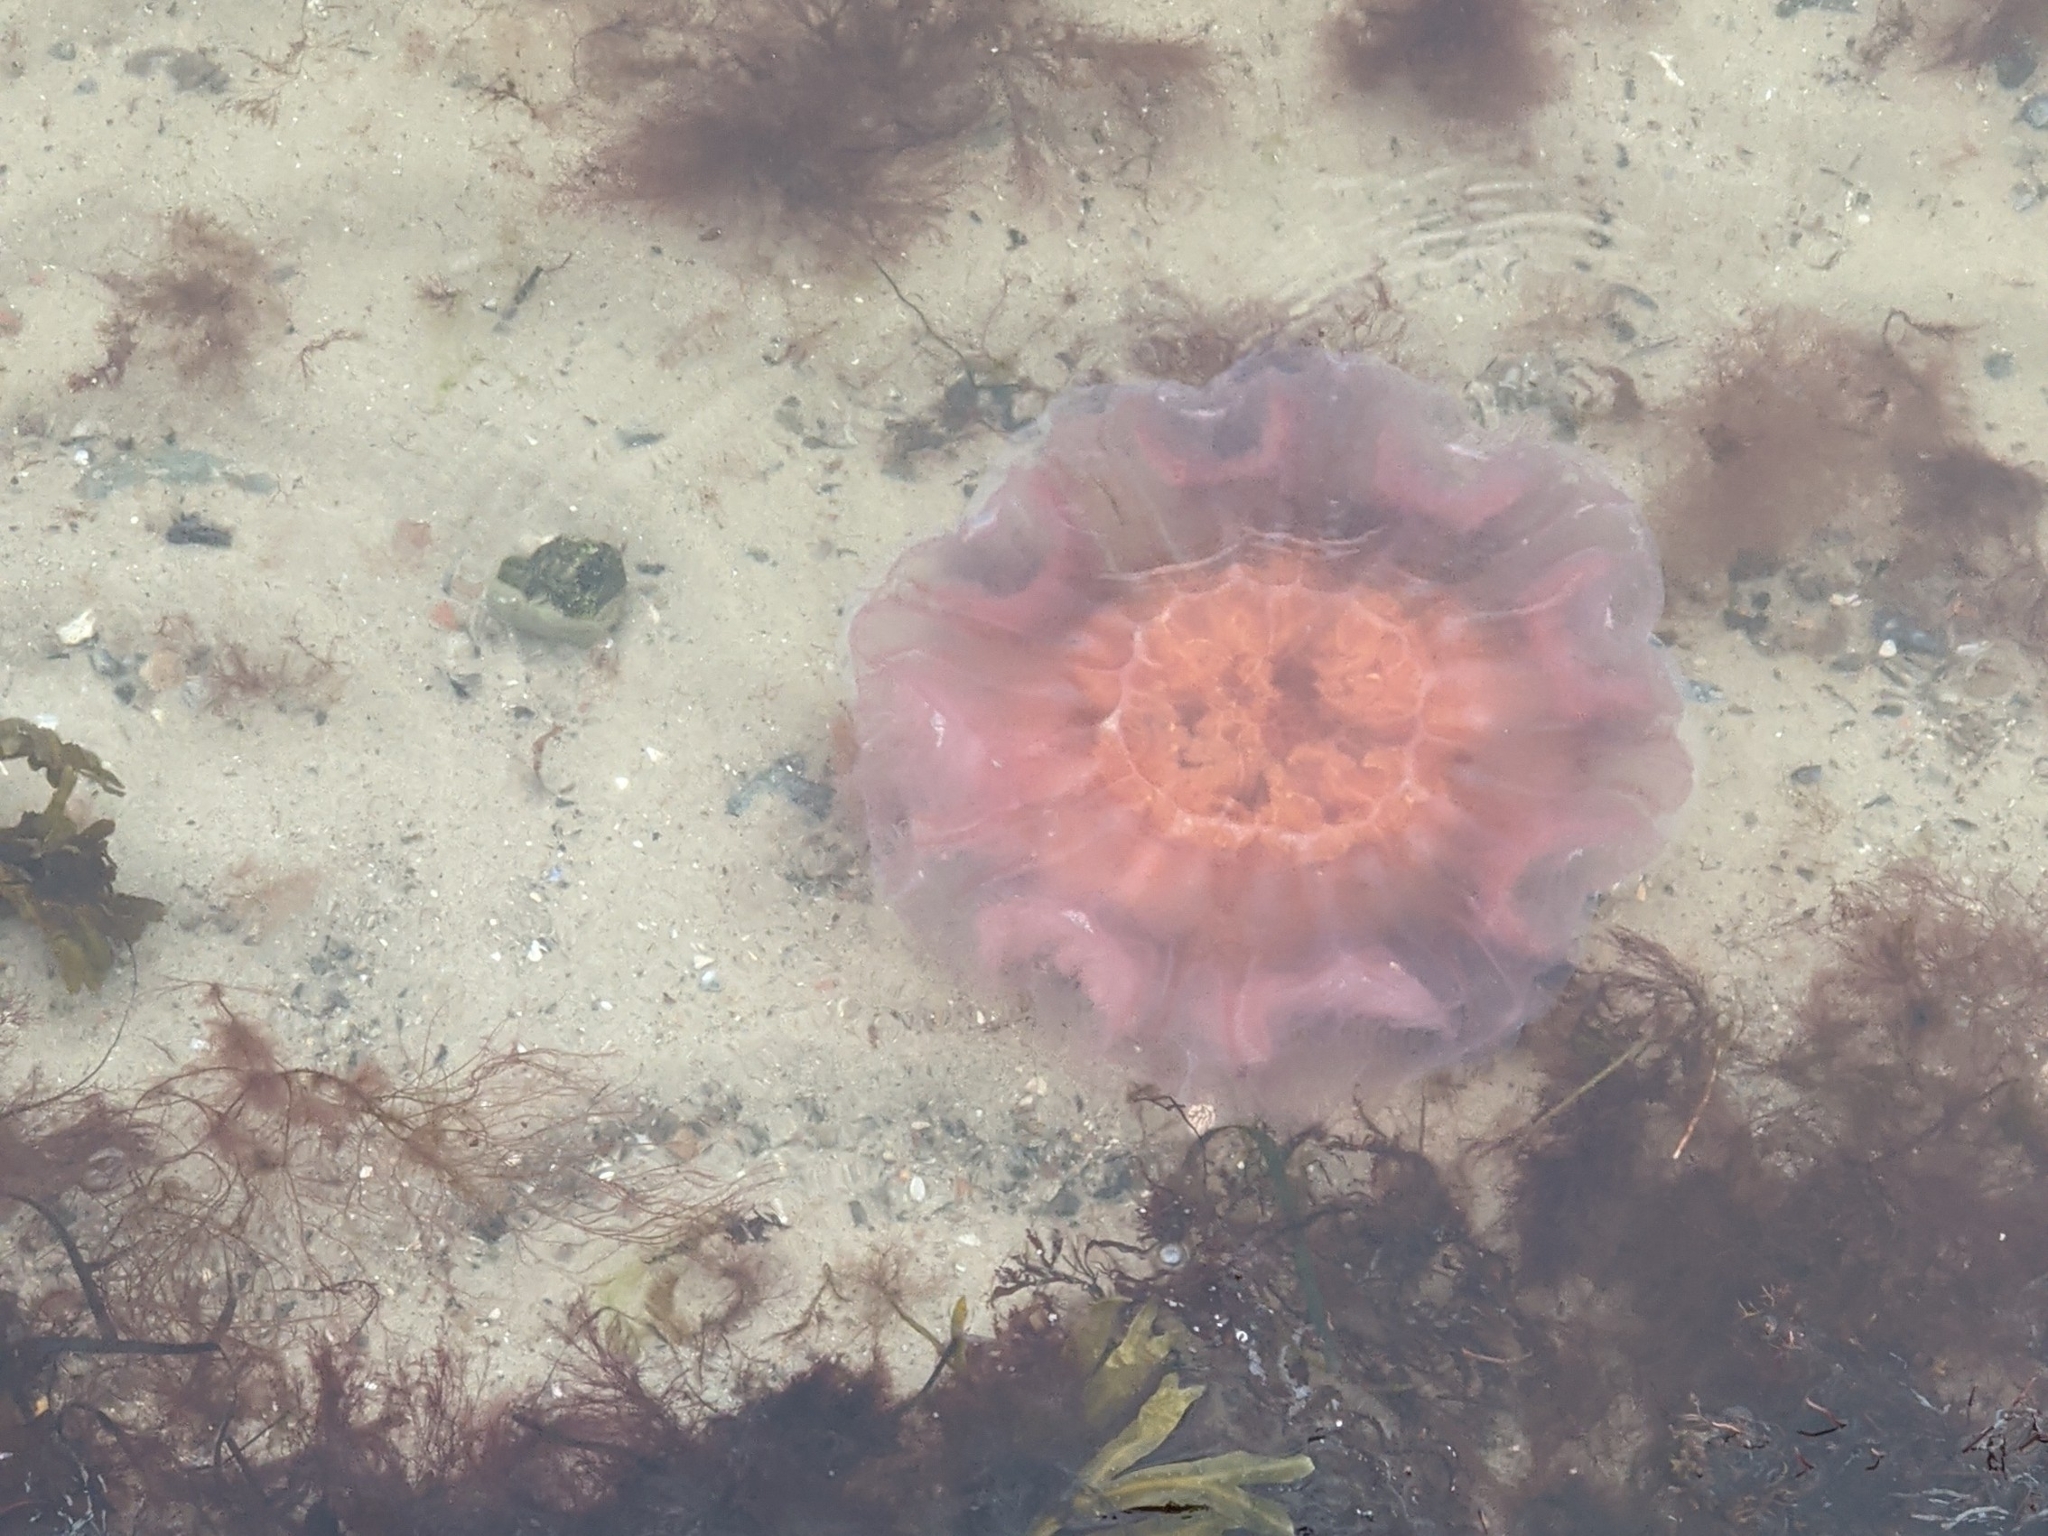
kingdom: Animalia
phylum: Cnidaria
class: Scyphozoa
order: Semaeostomeae
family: Cyaneidae
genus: Cyanea
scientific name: Cyanea capillata
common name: Lion's mane jellyfish
